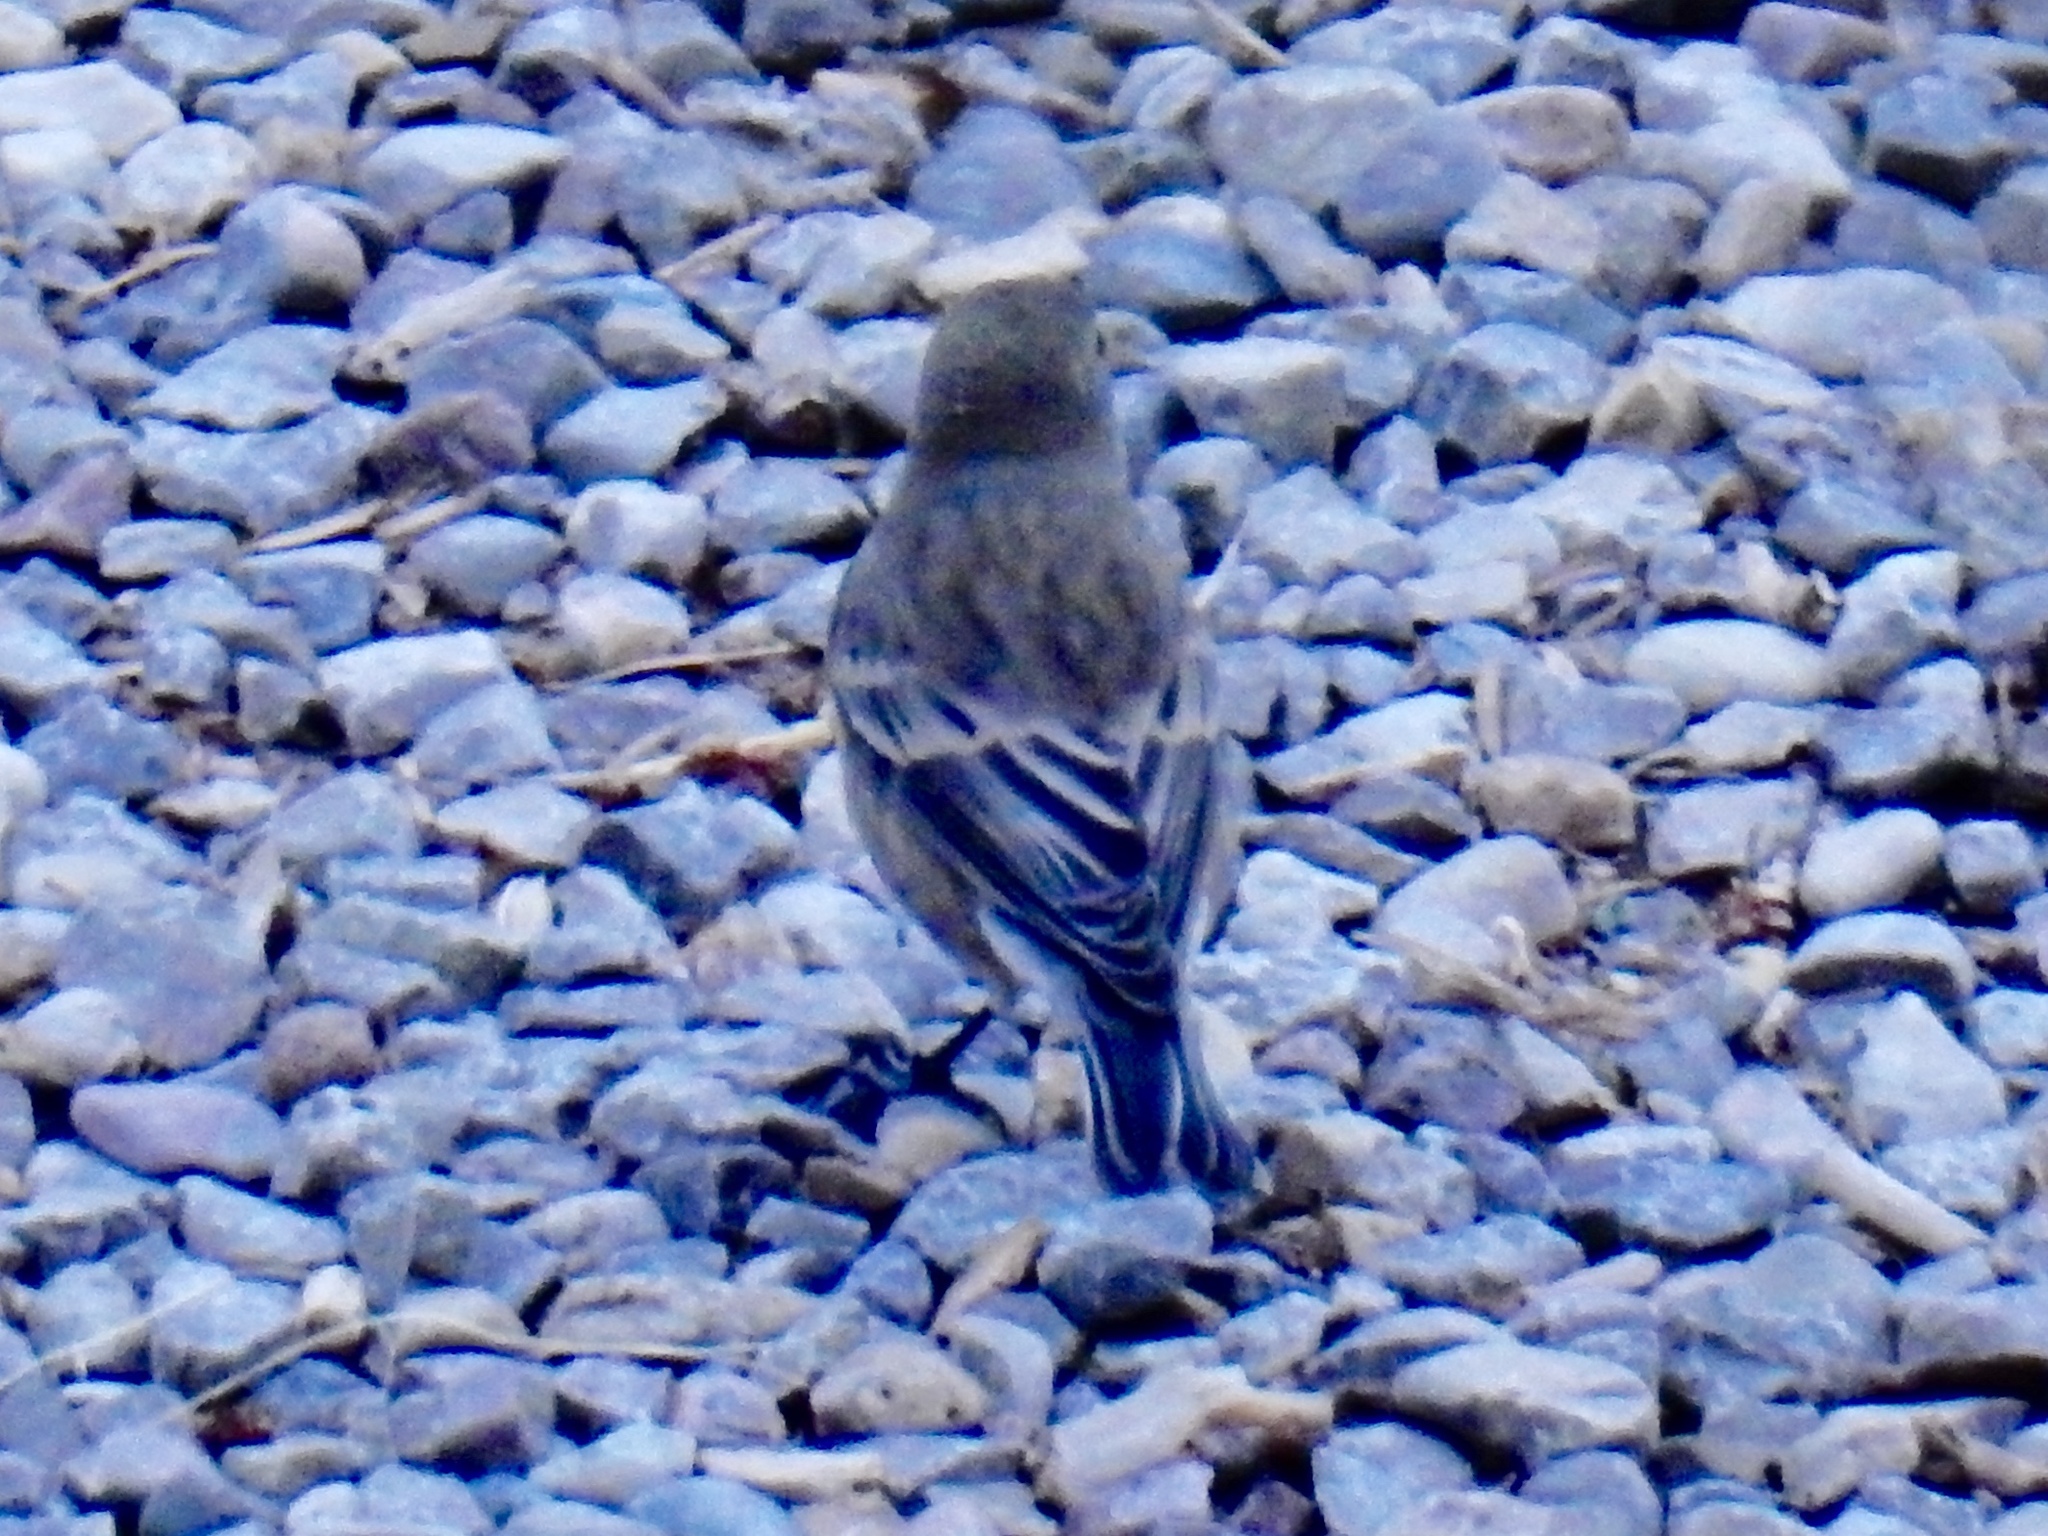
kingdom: Animalia
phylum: Chordata
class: Aves
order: Passeriformes
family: Parulidae
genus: Setophaga
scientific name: Setophaga coronata
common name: Myrtle warbler
